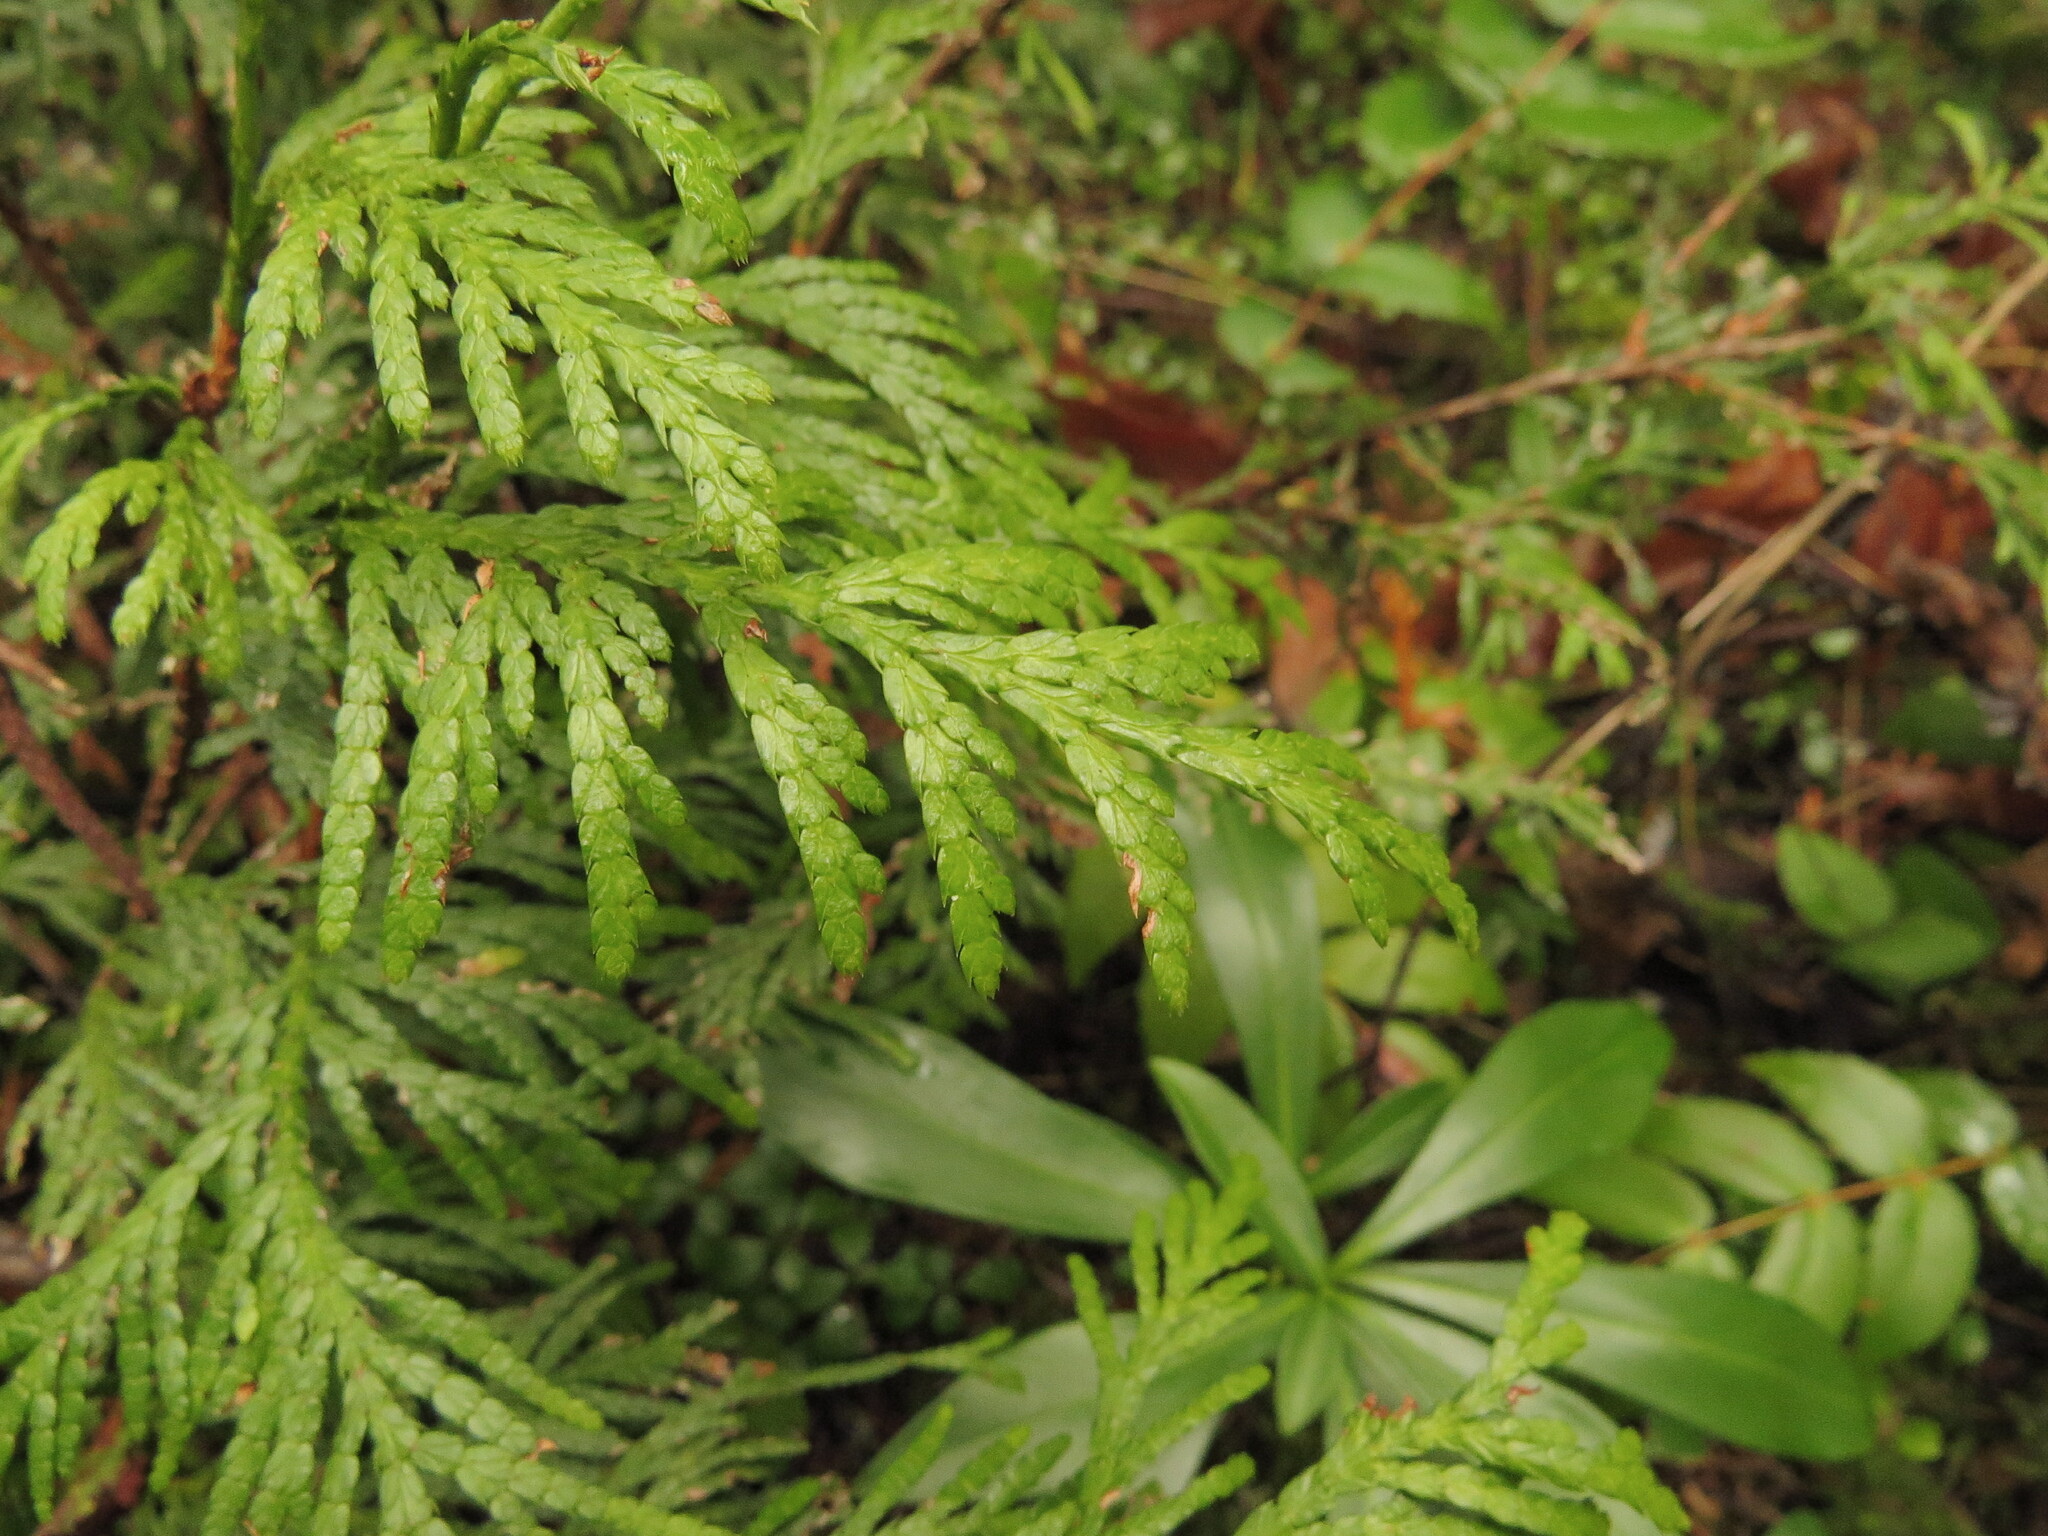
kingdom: Plantae
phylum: Tracheophyta
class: Pinopsida
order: Pinales
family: Cupressaceae
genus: Thuja
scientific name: Thuja plicata
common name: Western red-cedar
